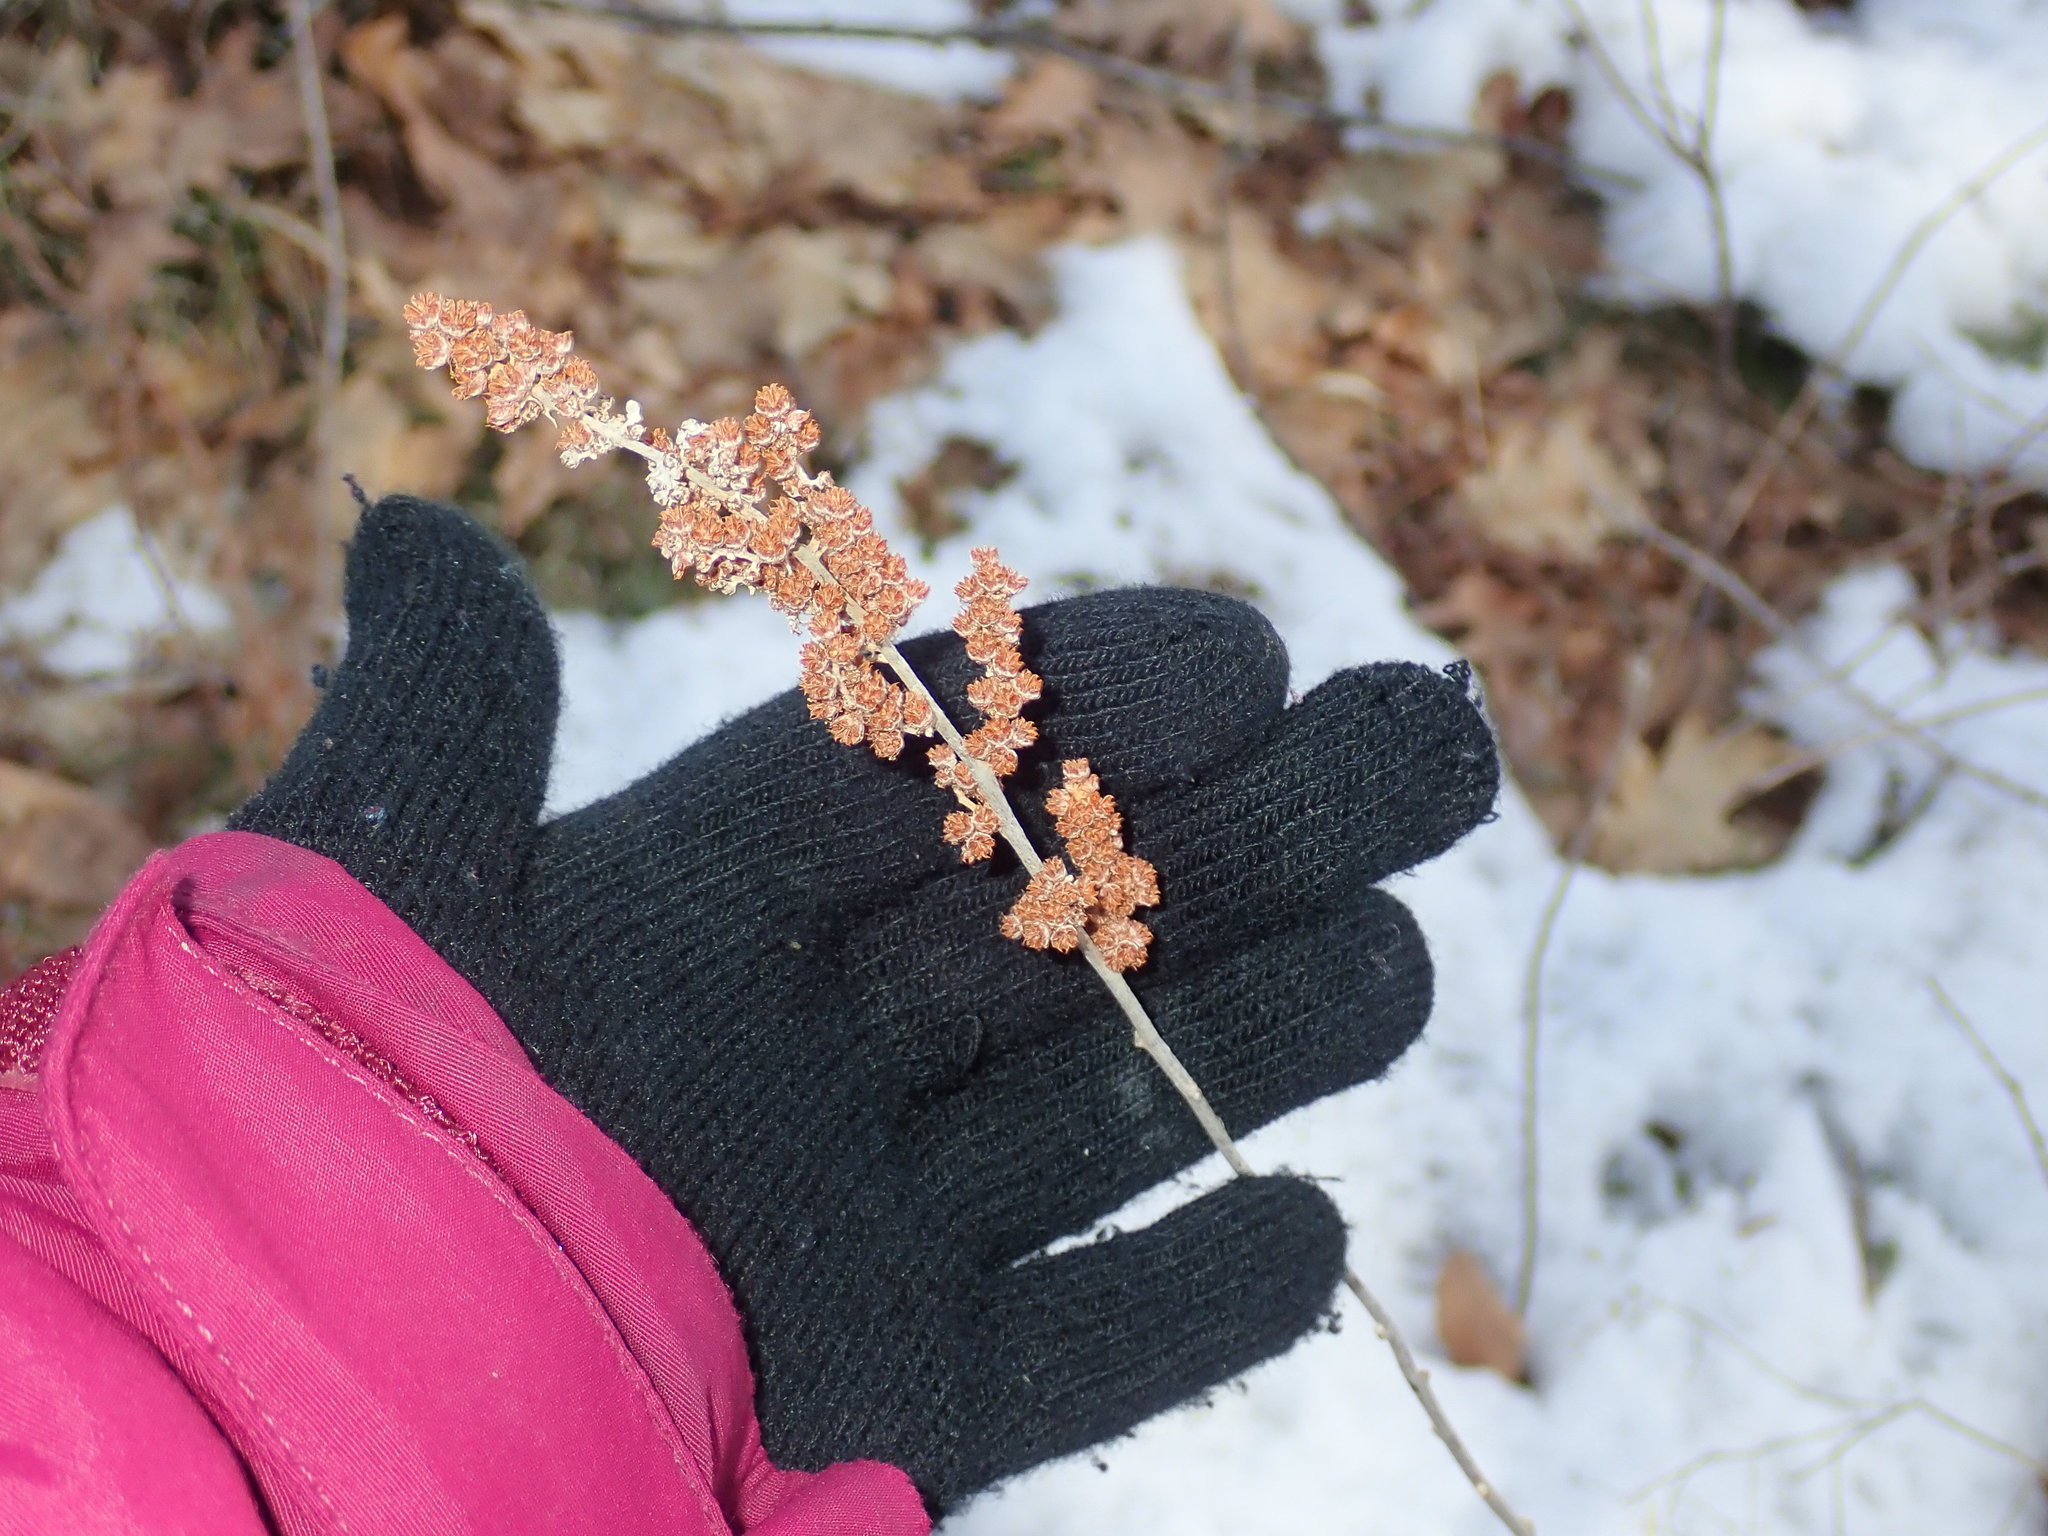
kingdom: Plantae
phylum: Tracheophyta
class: Magnoliopsida
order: Rosales
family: Rosaceae
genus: Spiraea
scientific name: Spiraea tomentosa
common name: Hardhack
